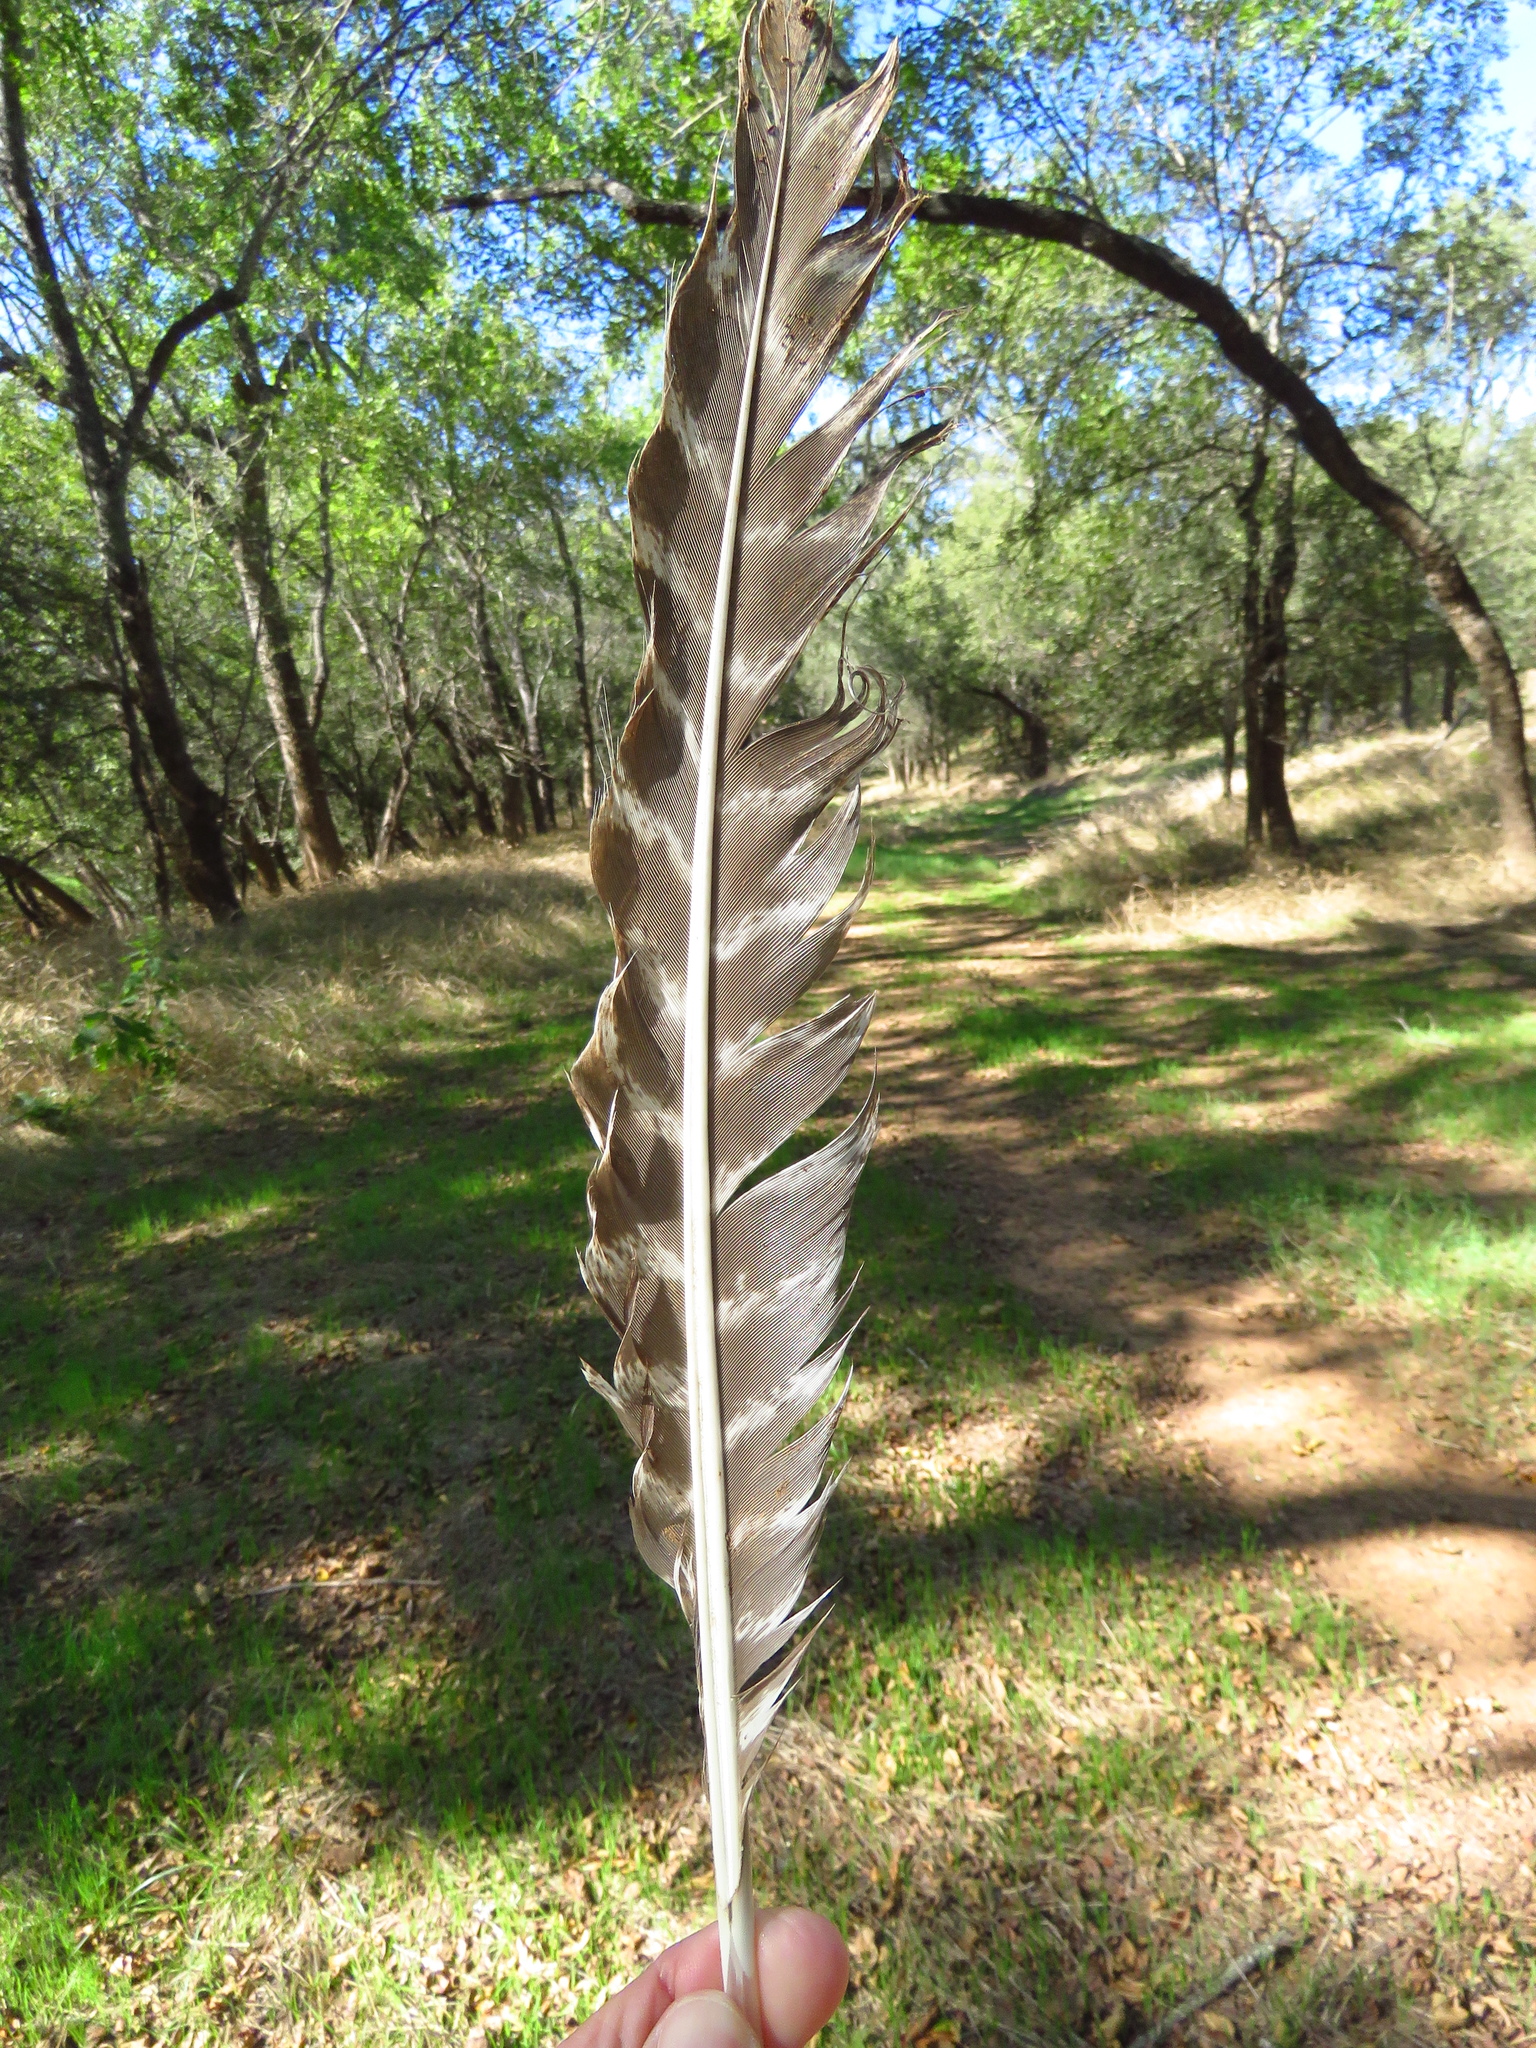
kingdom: Animalia
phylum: Chordata
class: Aves
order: Galliformes
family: Phasianidae
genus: Meleagris
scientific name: Meleagris gallopavo
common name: Wild turkey
